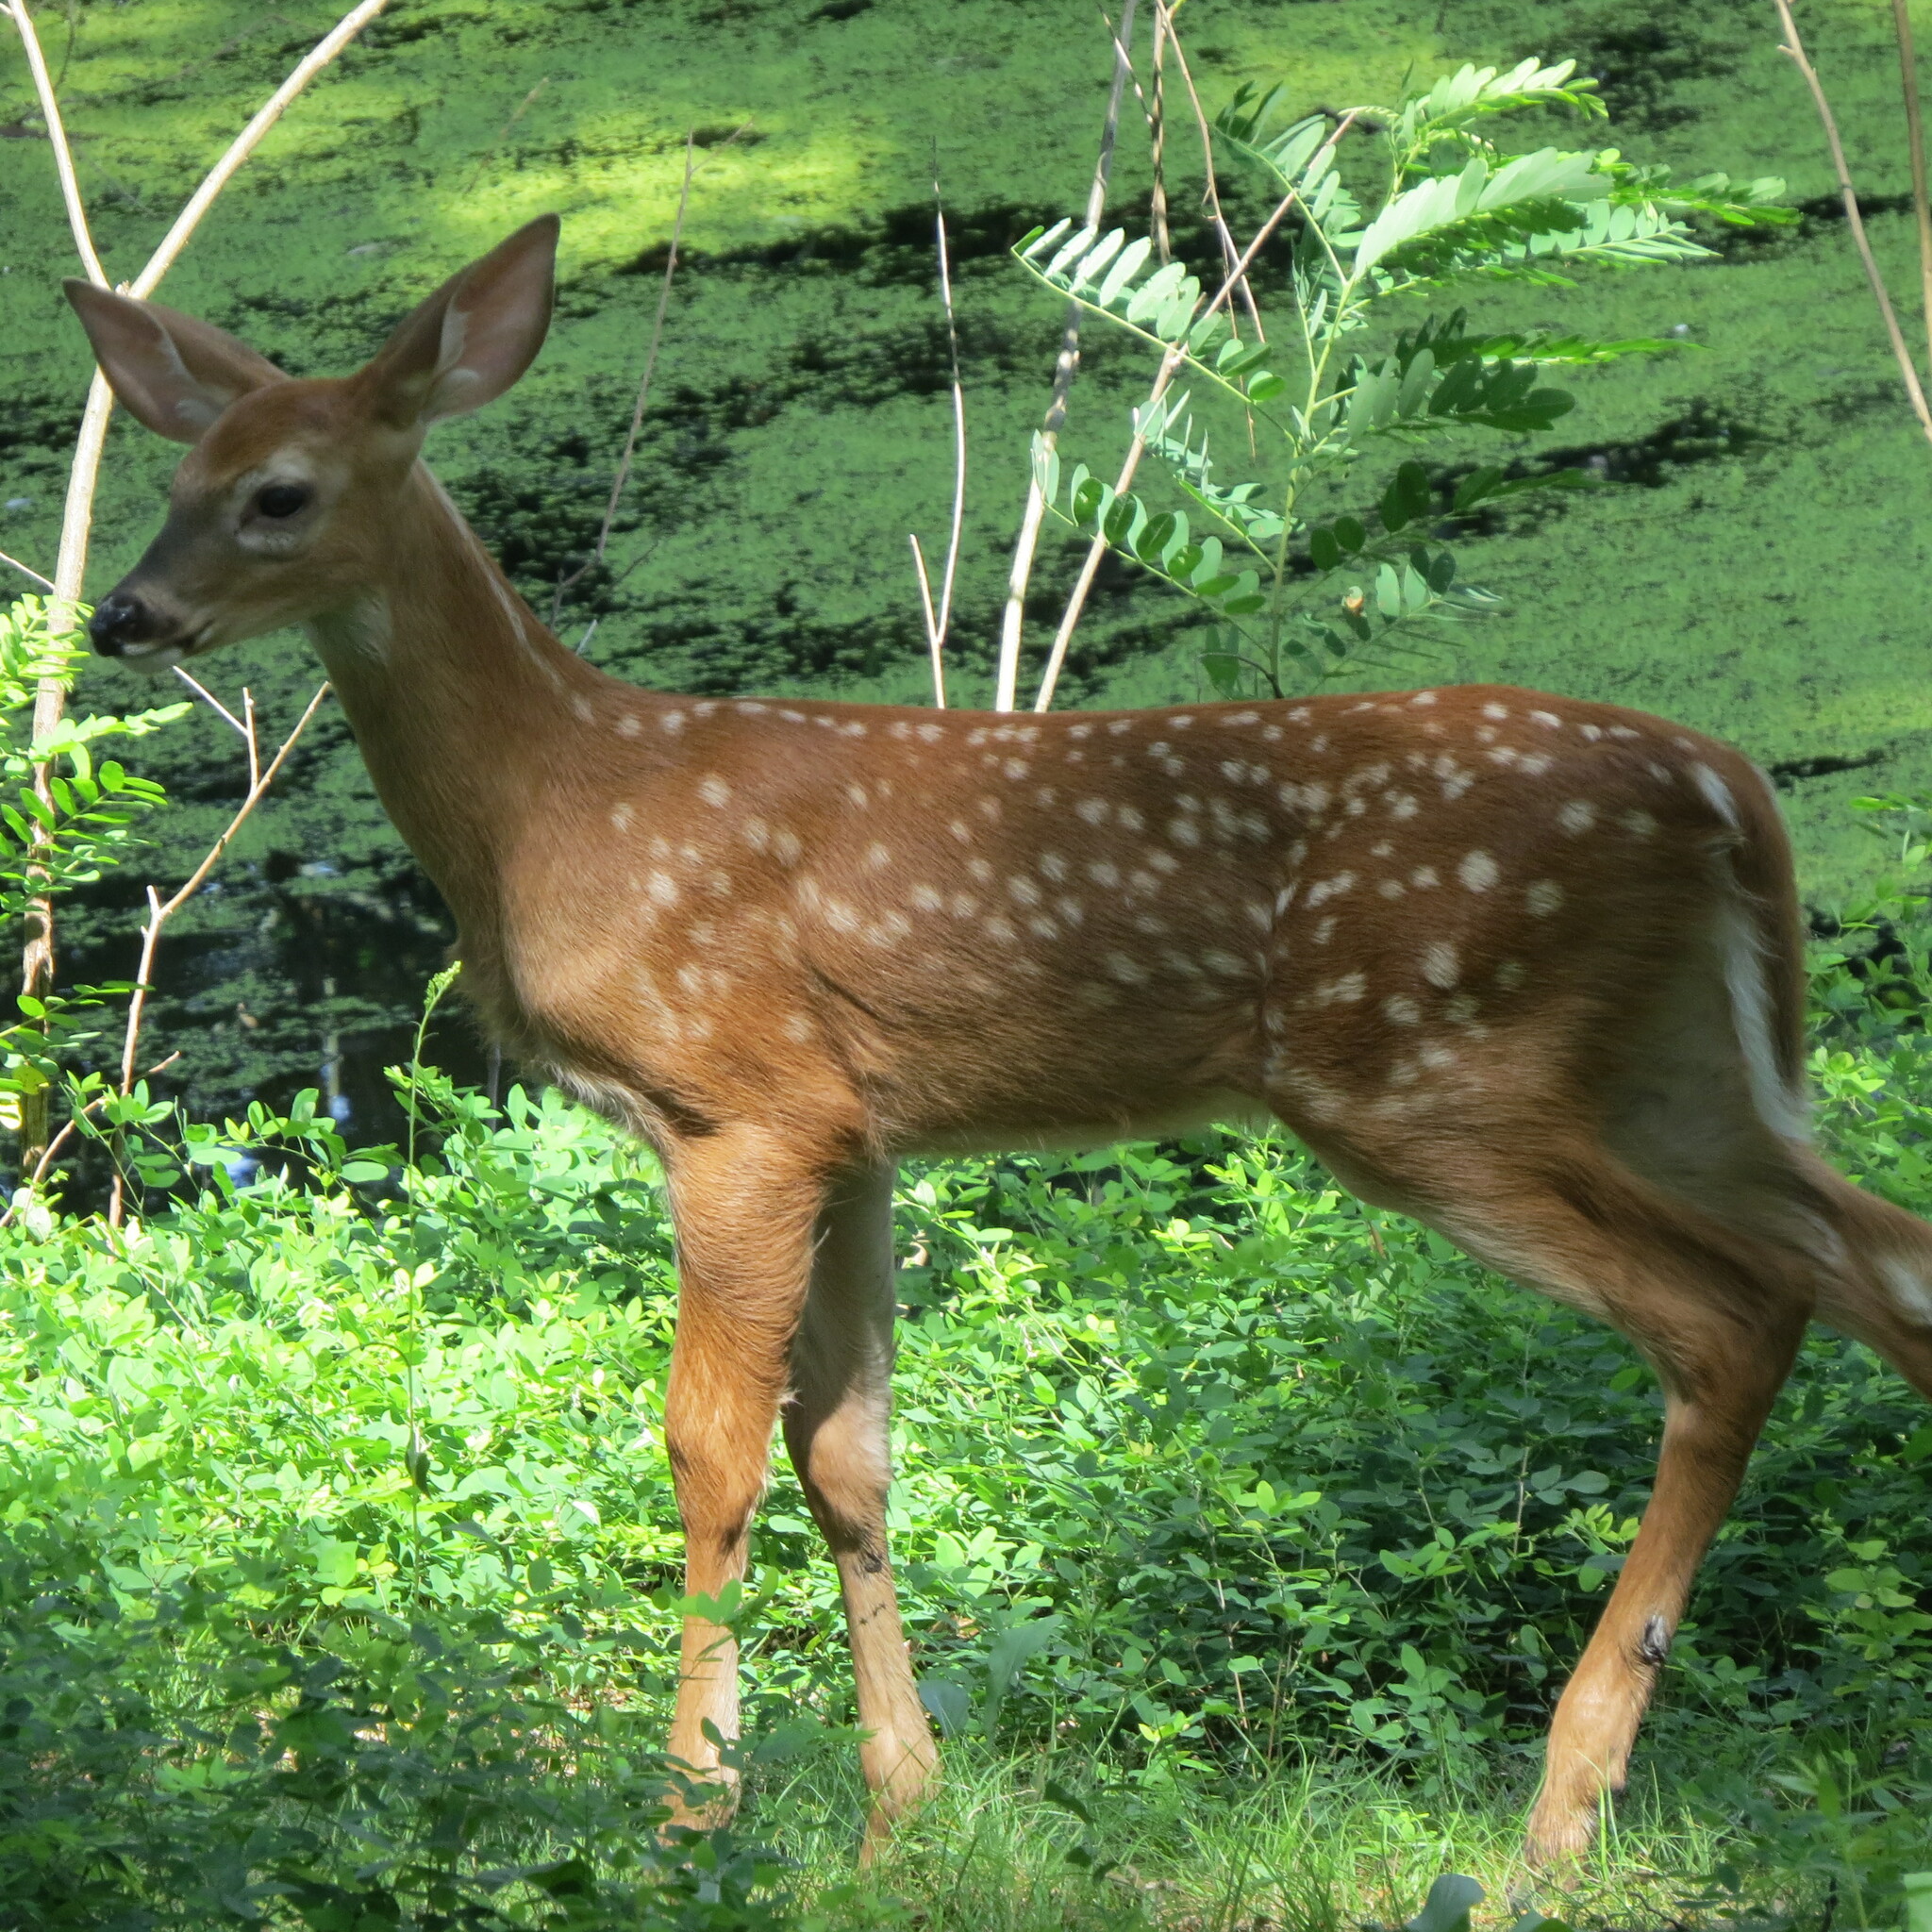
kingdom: Animalia
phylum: Chordata
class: Mammalia
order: Artiodactyla
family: Cervidae
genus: Odocoileus
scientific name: Odocoileus virginianus
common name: White-tailed deer
